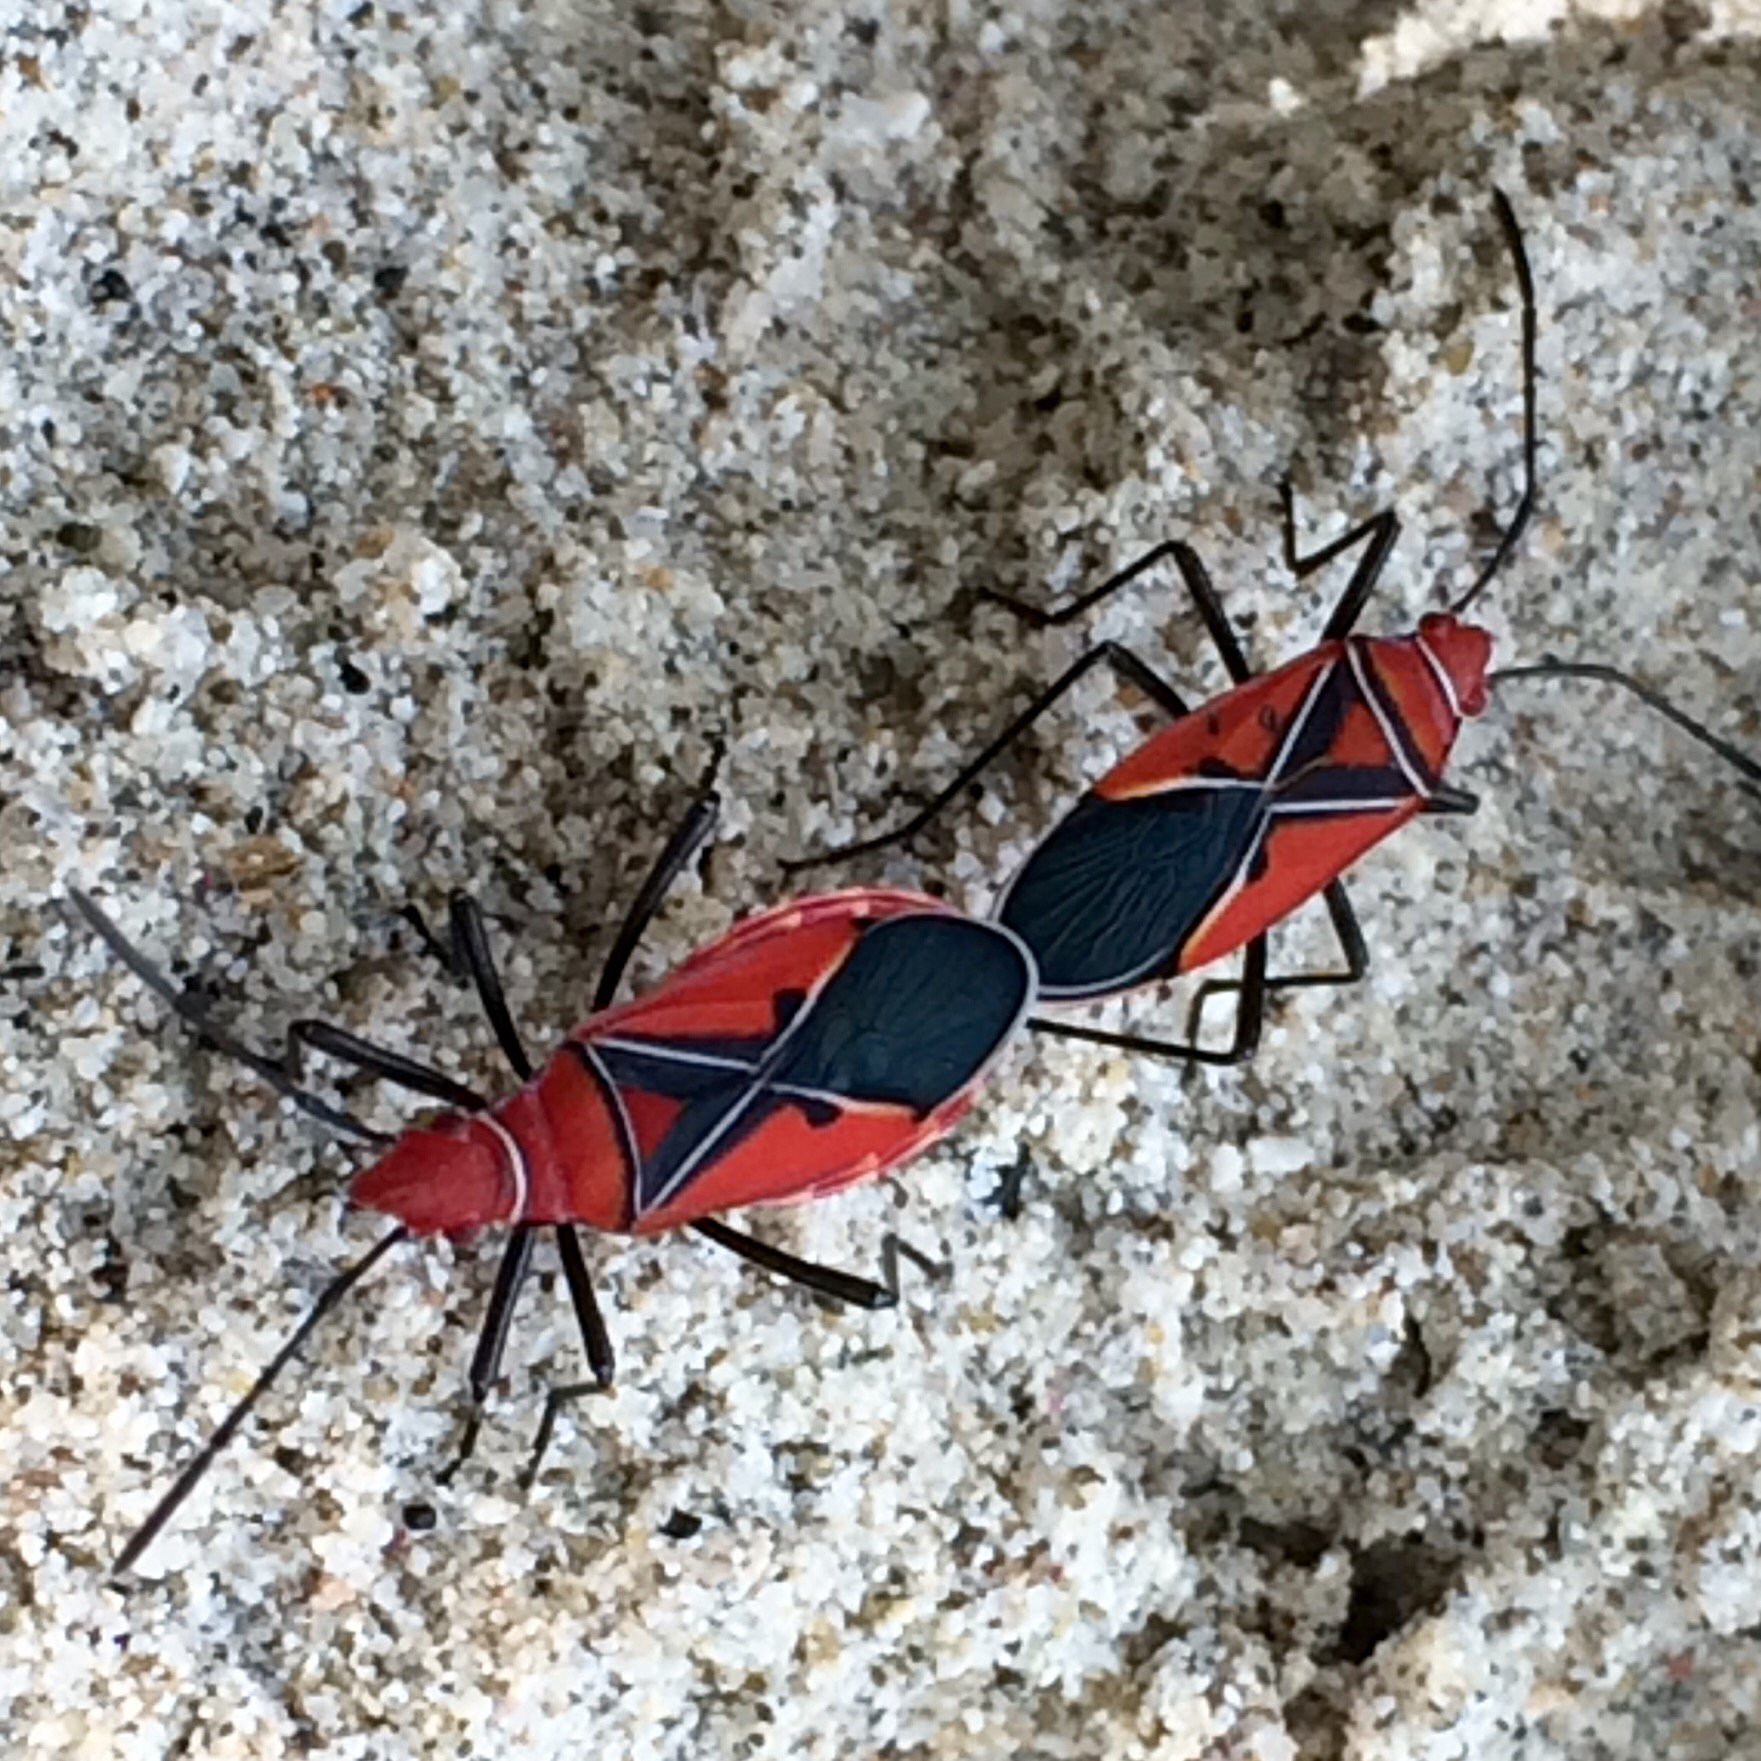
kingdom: Animalia
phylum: Arthropoda
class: Insecta
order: Hemiptera
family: Pyrrhocoridae
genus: Dysdercus
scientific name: Dysdercus andreae
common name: St. andrew's cotton stainer
